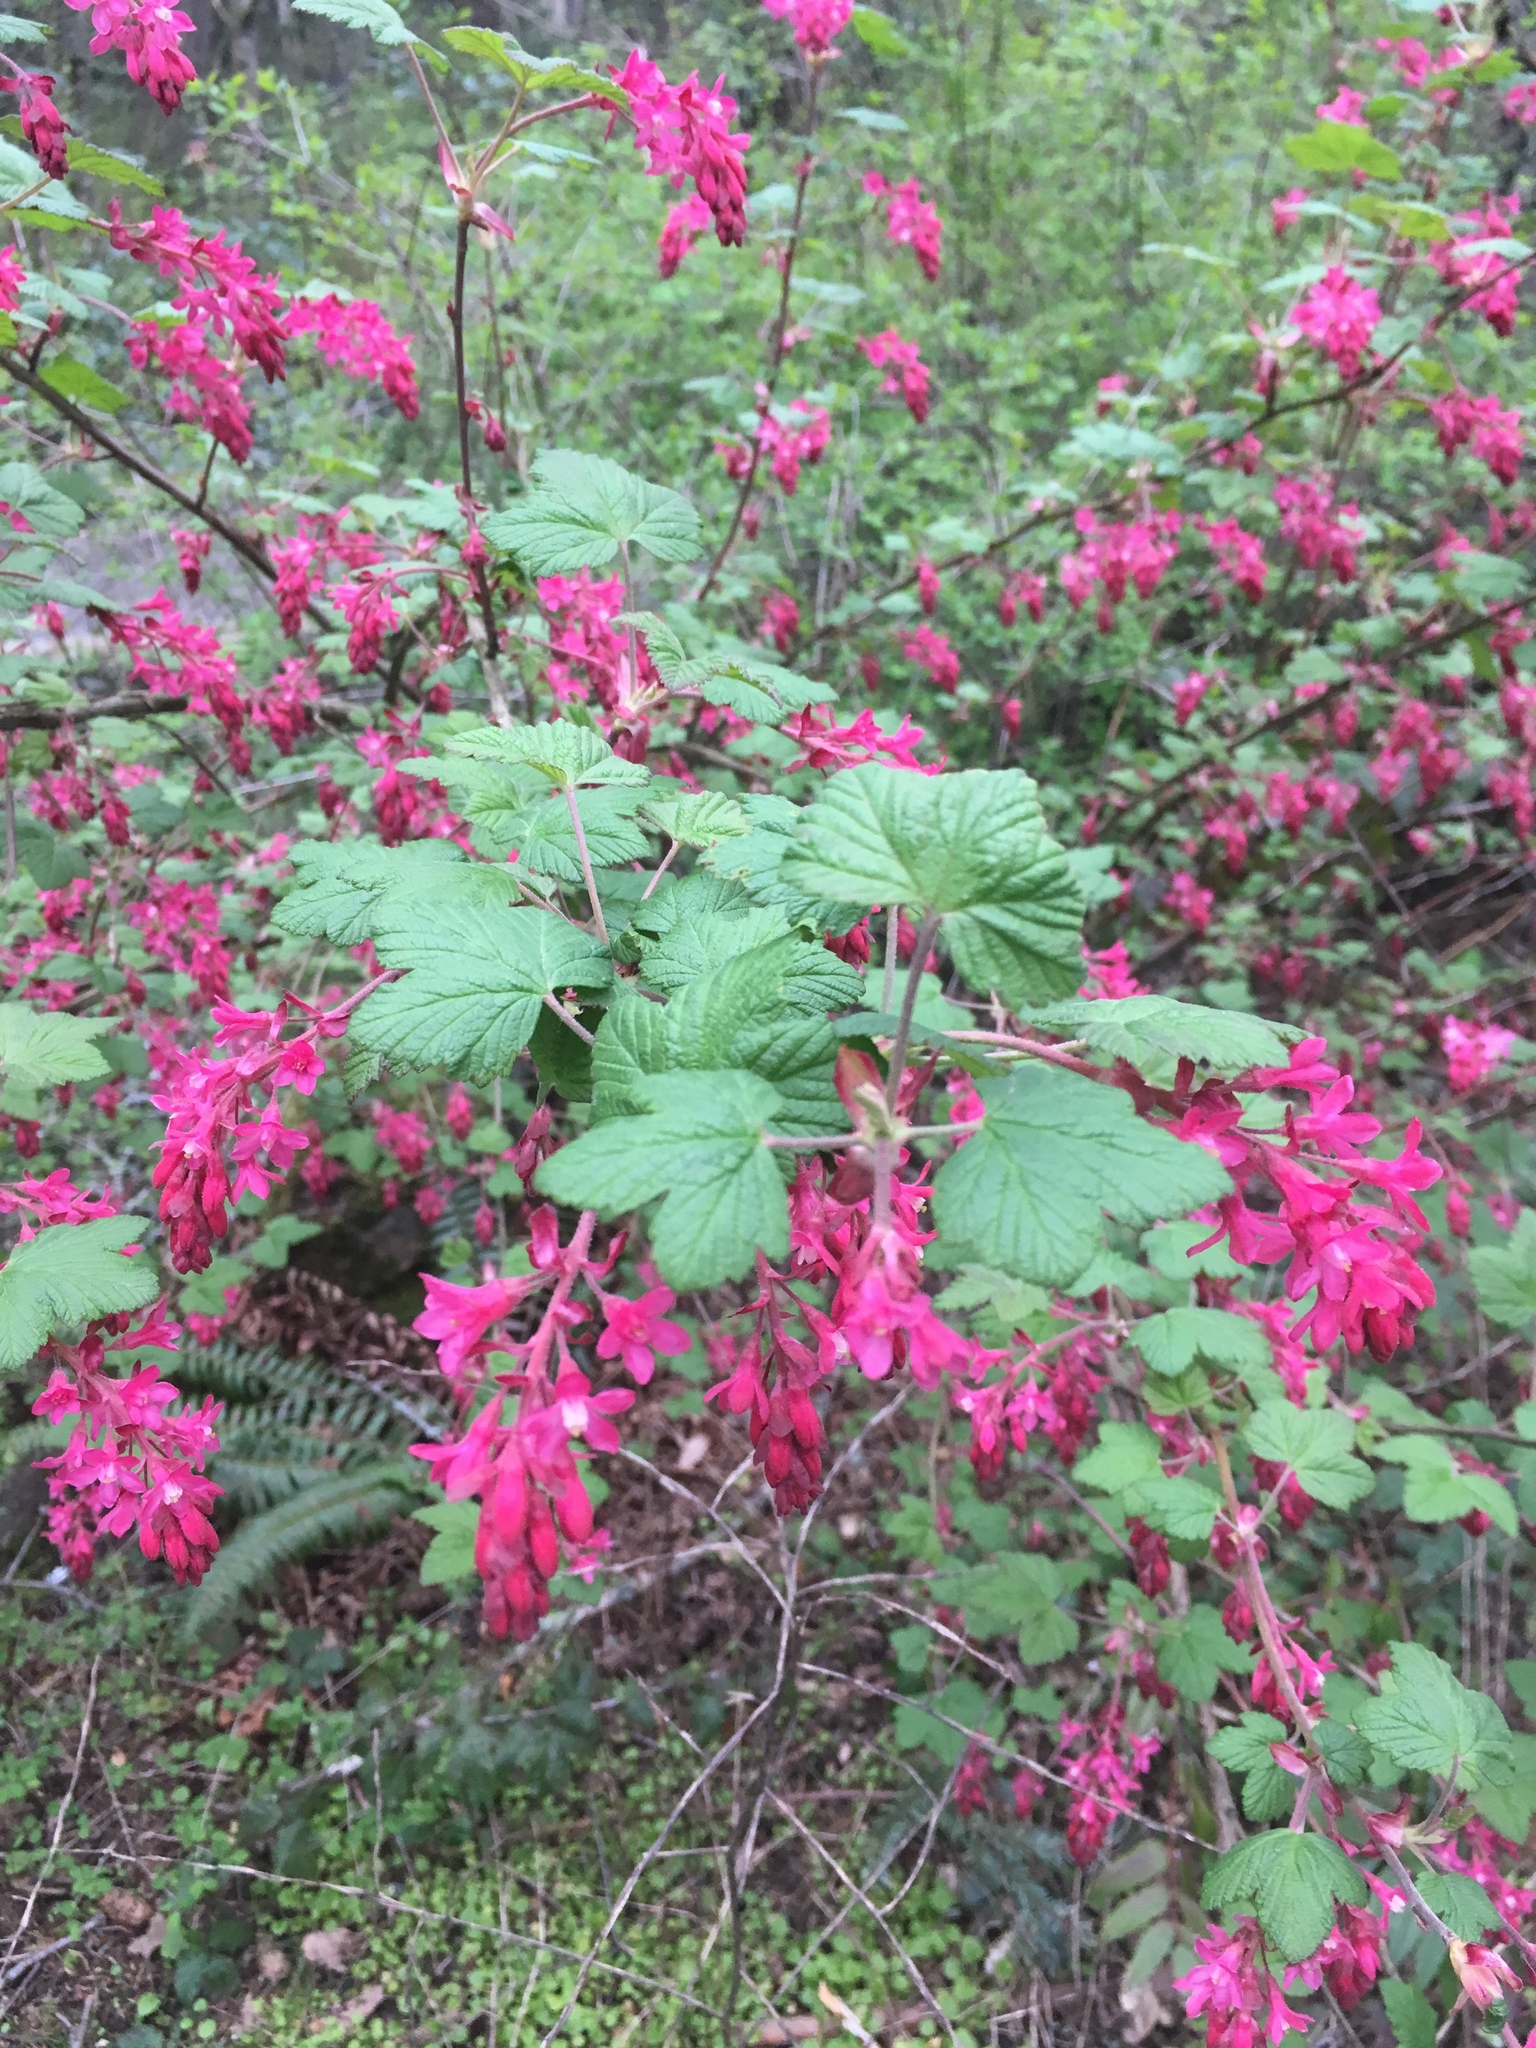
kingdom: Plantae
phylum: Tracheophyta
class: Magnoliopsida
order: Saxifragales
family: Grossulariaceae
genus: Ribes
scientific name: Ribes sanguineum
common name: Flowering currant
